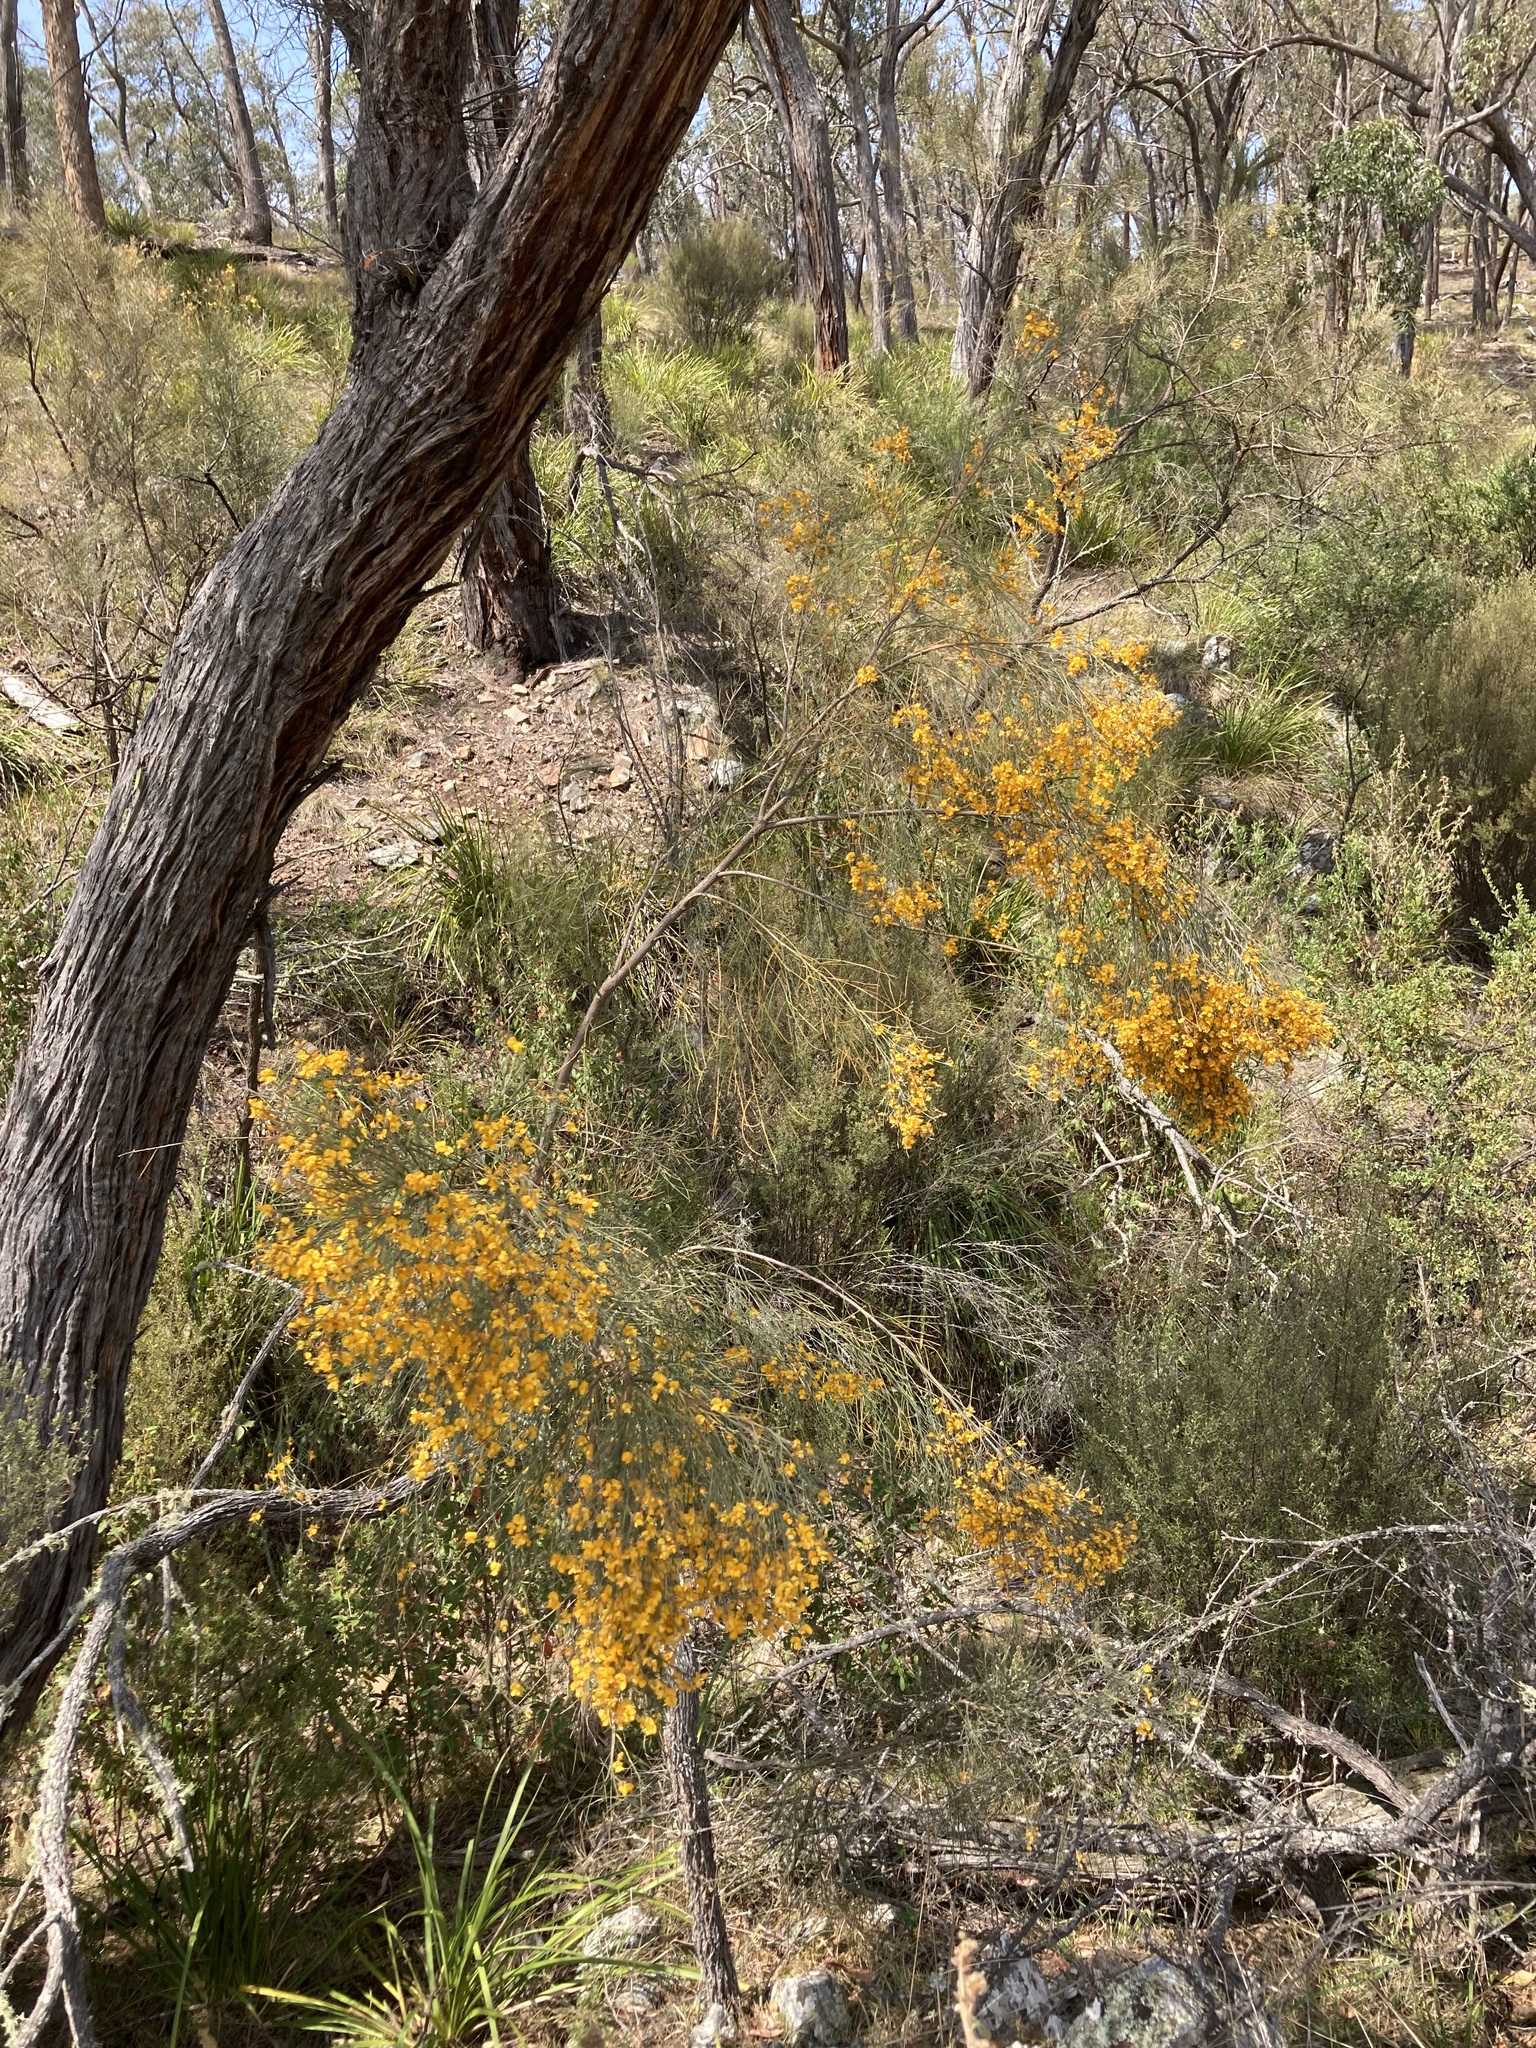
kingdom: Plantae
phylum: Tracheophyta
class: Magnoliopsida
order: Fabales
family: Fabaceae
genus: Jacksonia
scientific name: Jacksonia scoparia
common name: Dogwood
